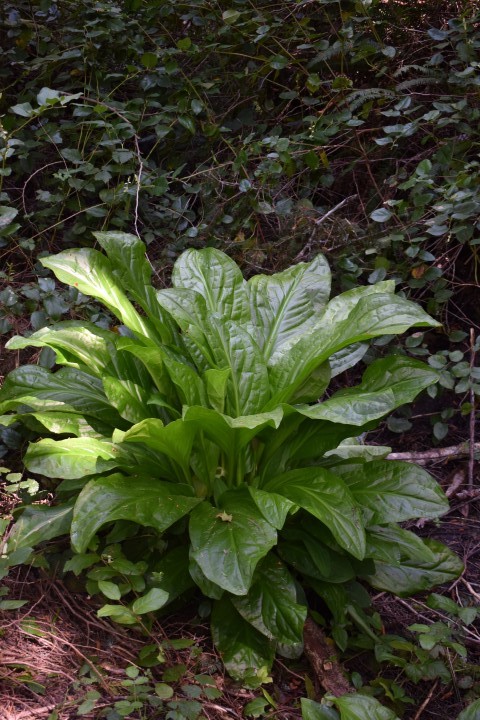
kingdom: Plantae
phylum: Tracheophyta
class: Liliopsida
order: Alismatales
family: Araceae
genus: Lysichiton
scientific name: Lysichiton americanus
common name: American skunk cabbage
